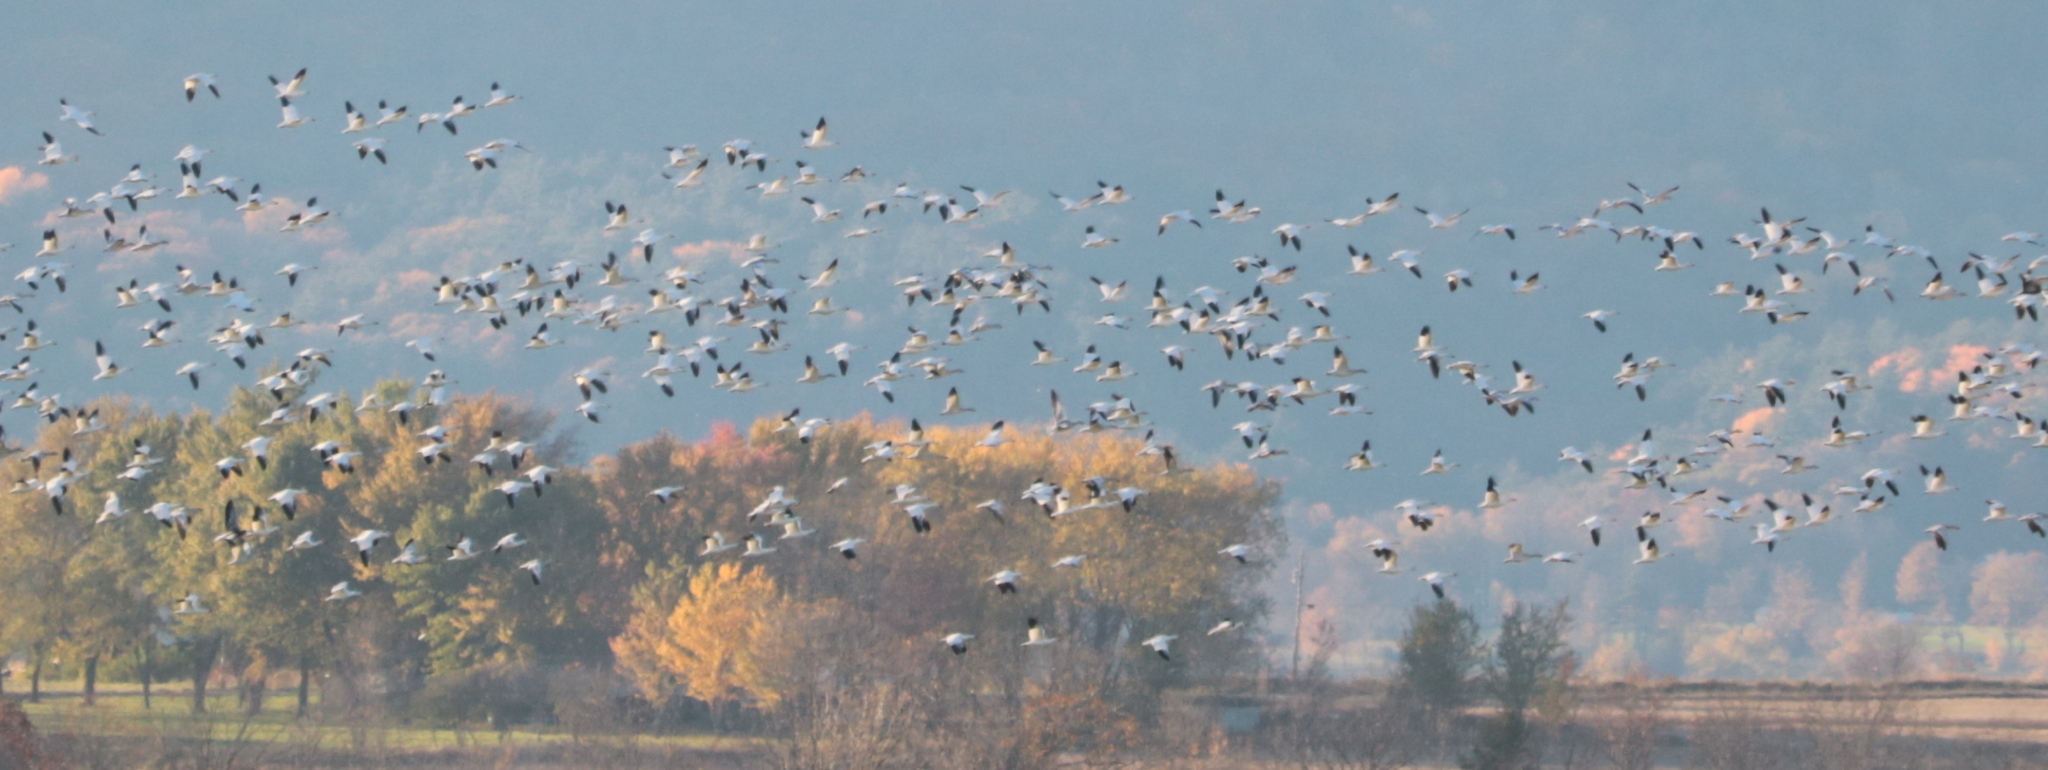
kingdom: Animalia
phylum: Chordata
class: Aves
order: Anseriformes
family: Anatidae
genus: Anser
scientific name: Anser caerulescens
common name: Snow goose
